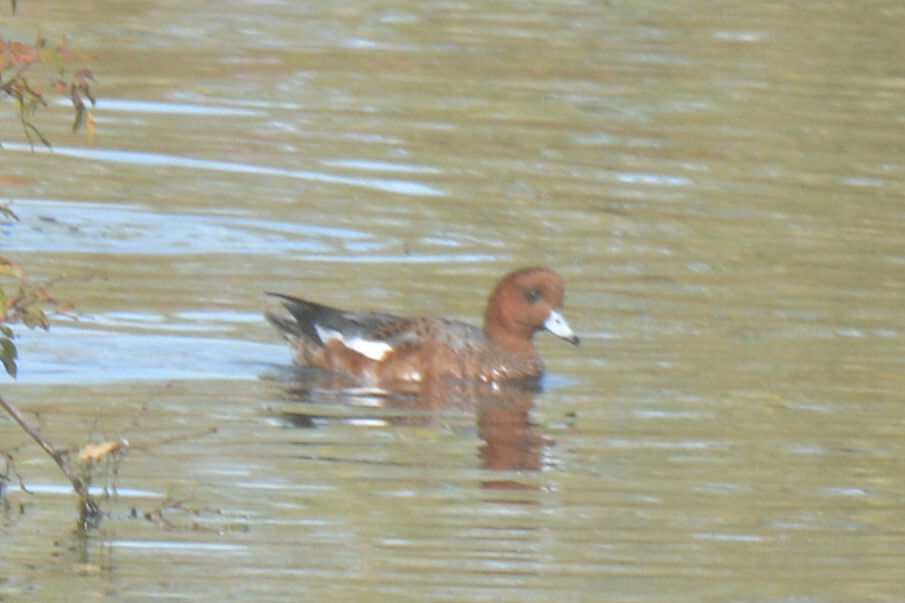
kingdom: Animalia
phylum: Chordata
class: Aves
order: Anseriformes
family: Anatidae
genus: Mareca
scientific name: Mareca penelope
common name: Eurasian wigeon
